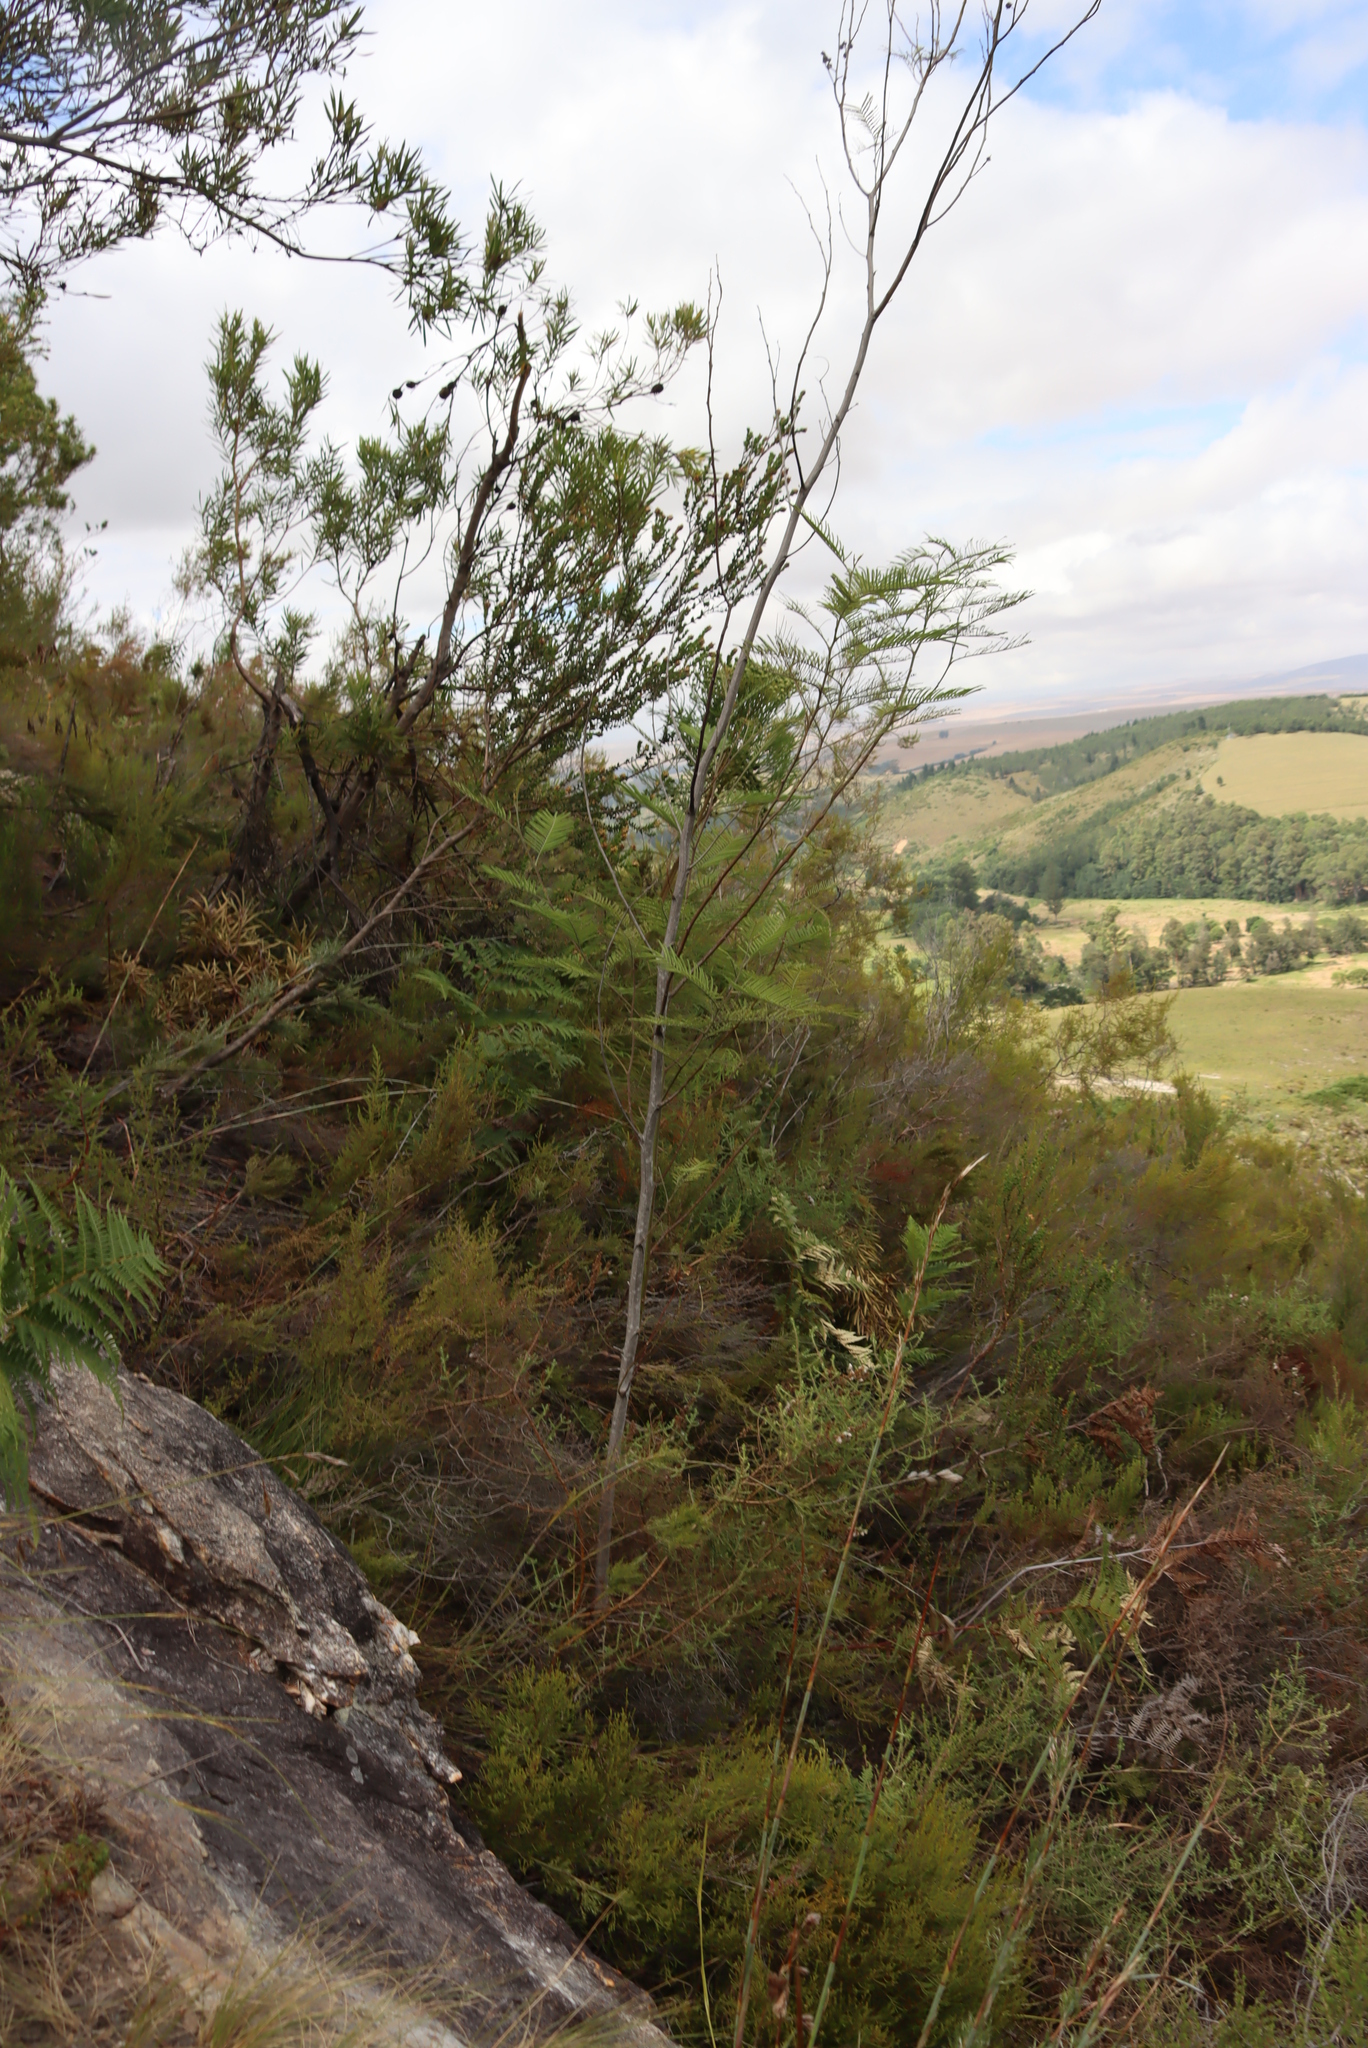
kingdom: Plantae
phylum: Tracheophyta
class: Magnoliopsida
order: Fabales
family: Fabaceae
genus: Acacia
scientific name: Acacia mearnsii
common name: Black wattle
